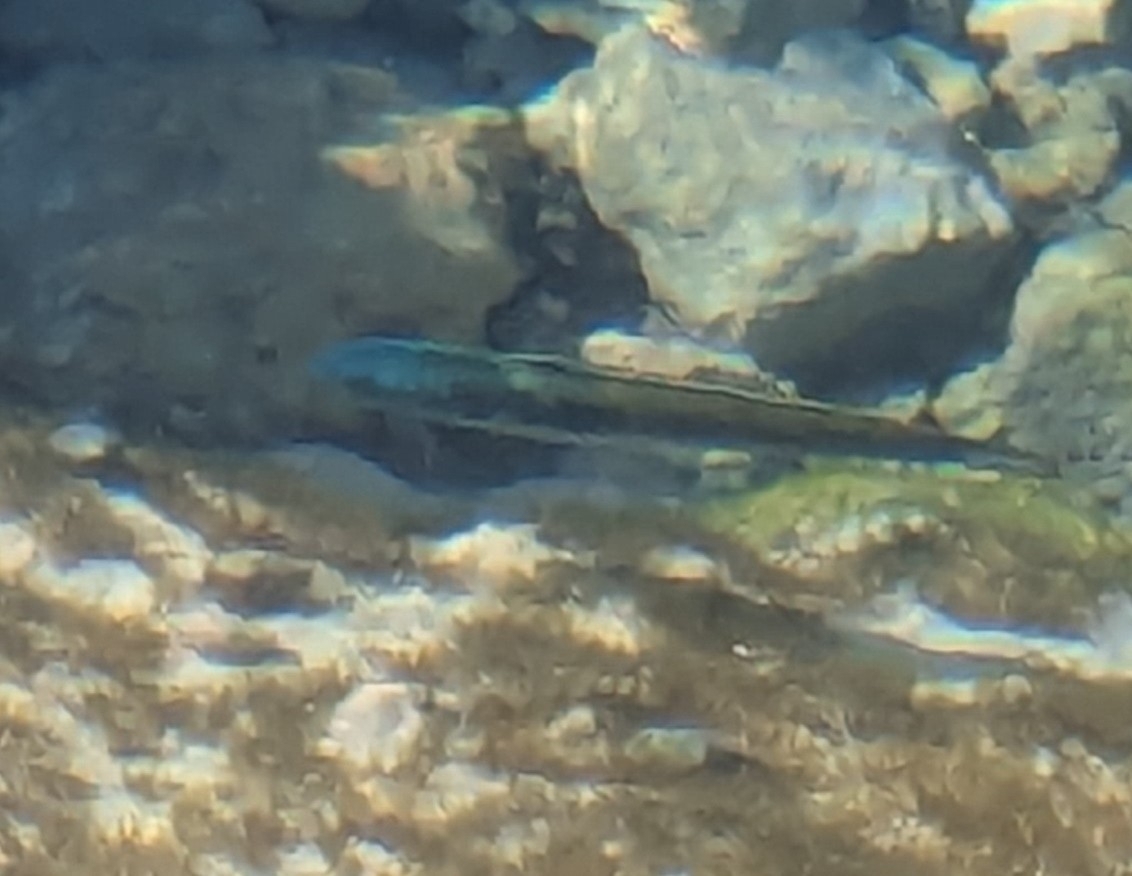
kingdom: Animalia
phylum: Chordata
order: Perciformes
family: Labridae
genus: Thalassoma
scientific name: Thalassoma bifasciatum
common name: Bluehead wrasse
